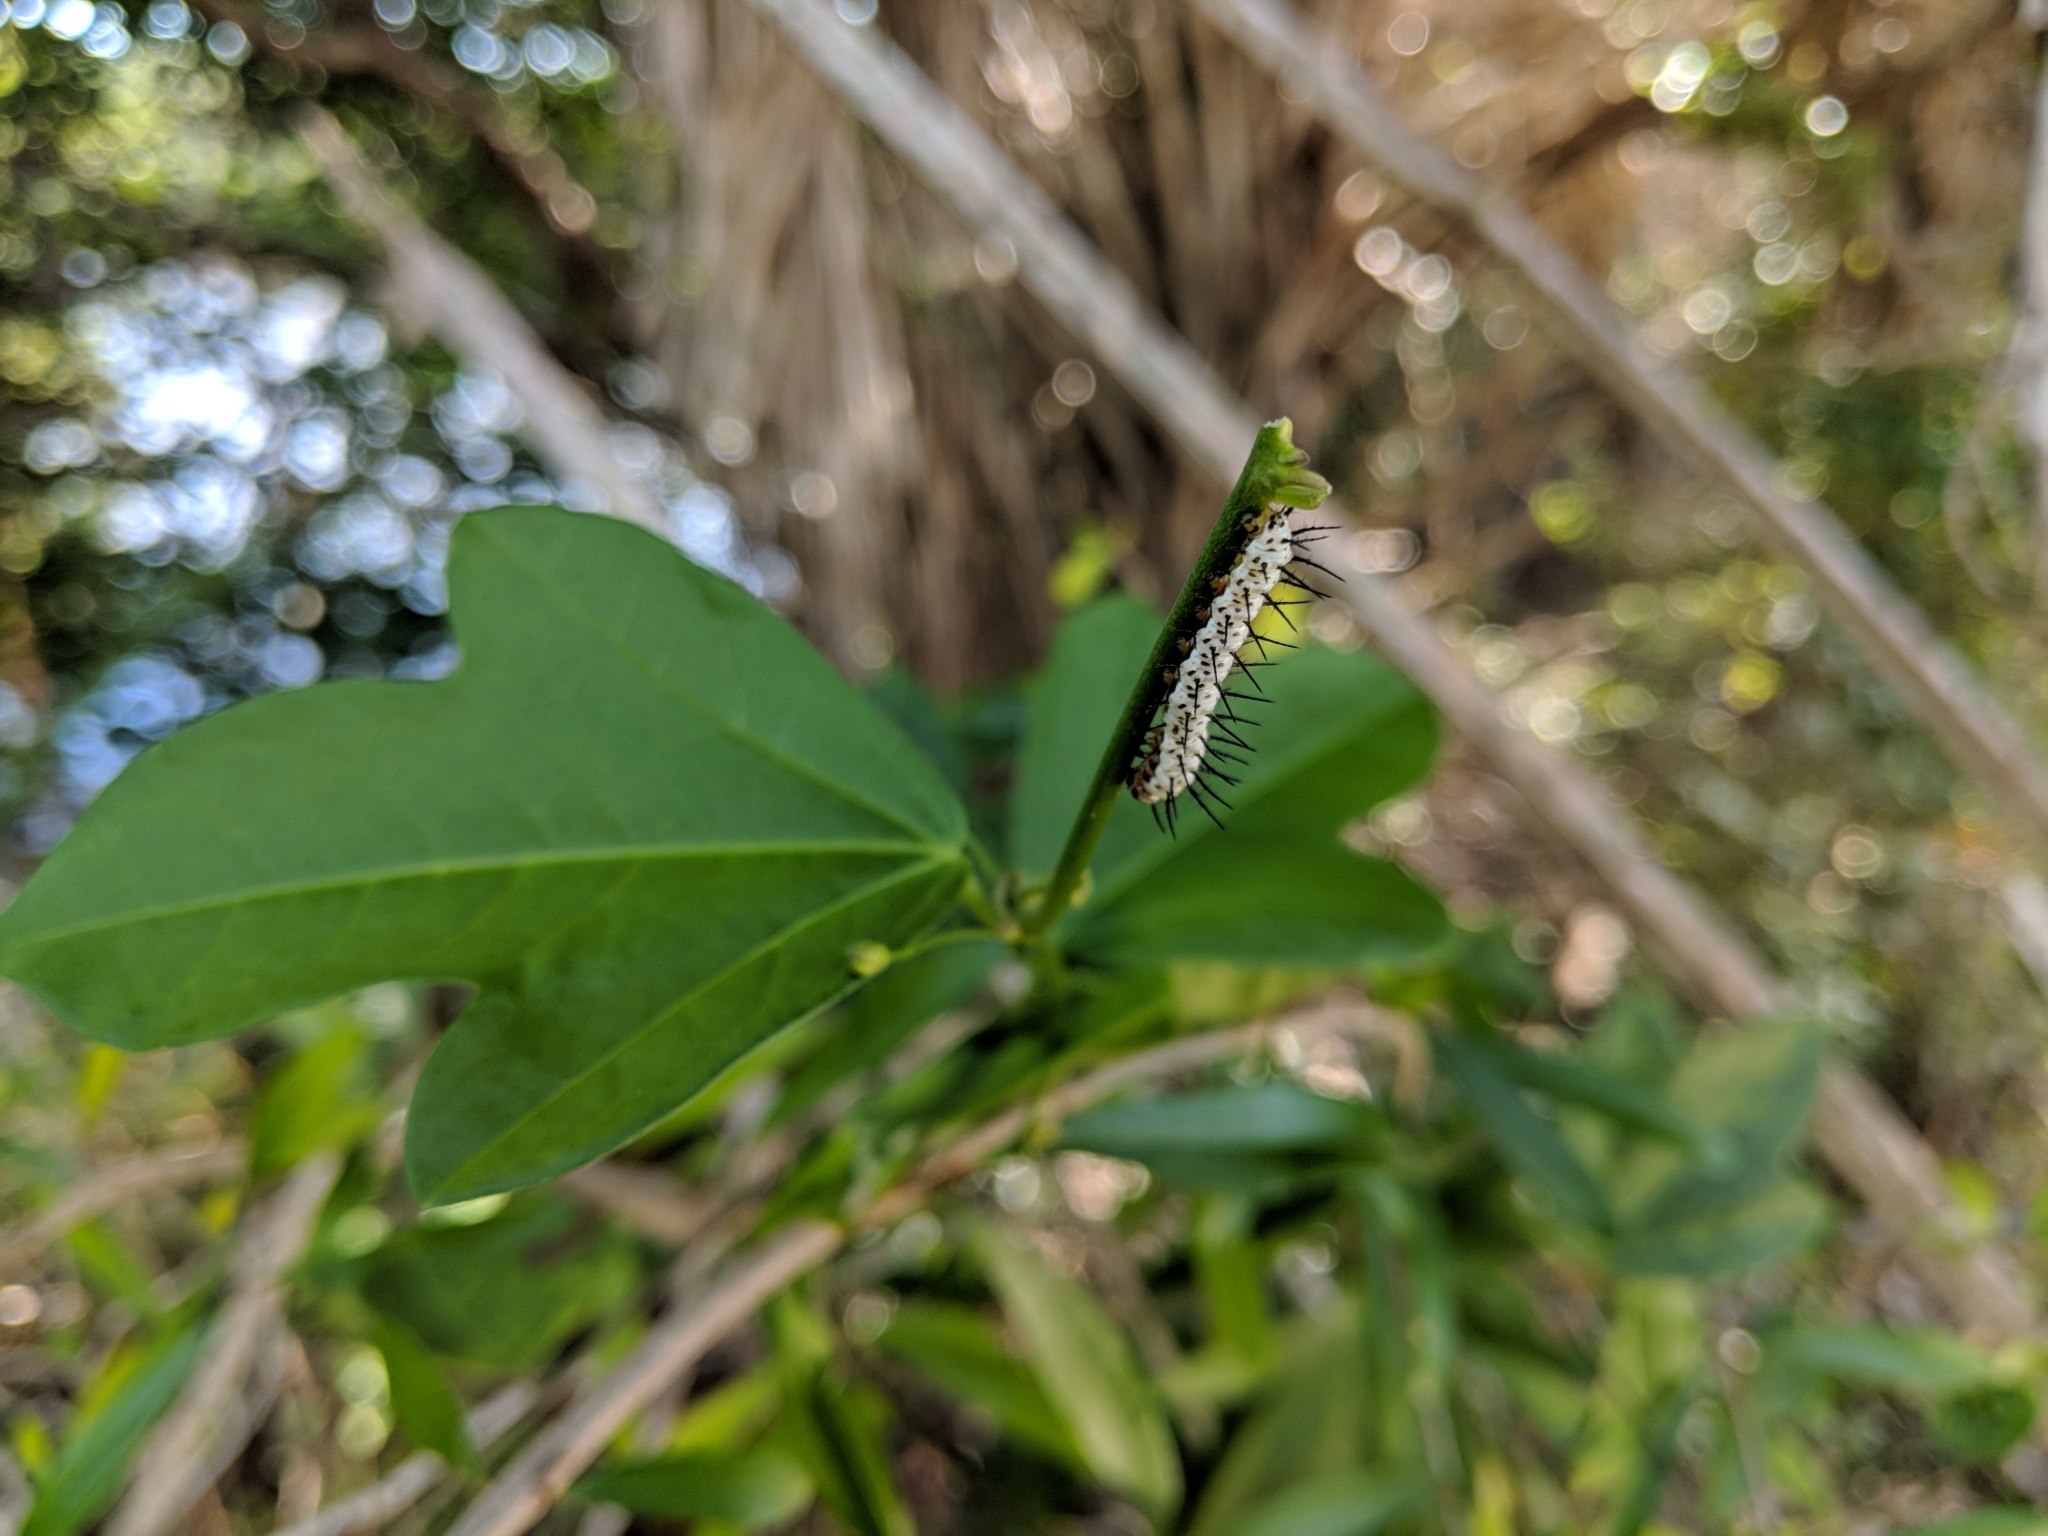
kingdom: Animalia
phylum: Arthropoda
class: Insecta
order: Lepidoptera
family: Nymphalidae
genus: Heliconius
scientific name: Heliconius charithonia
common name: Zebra long wing
